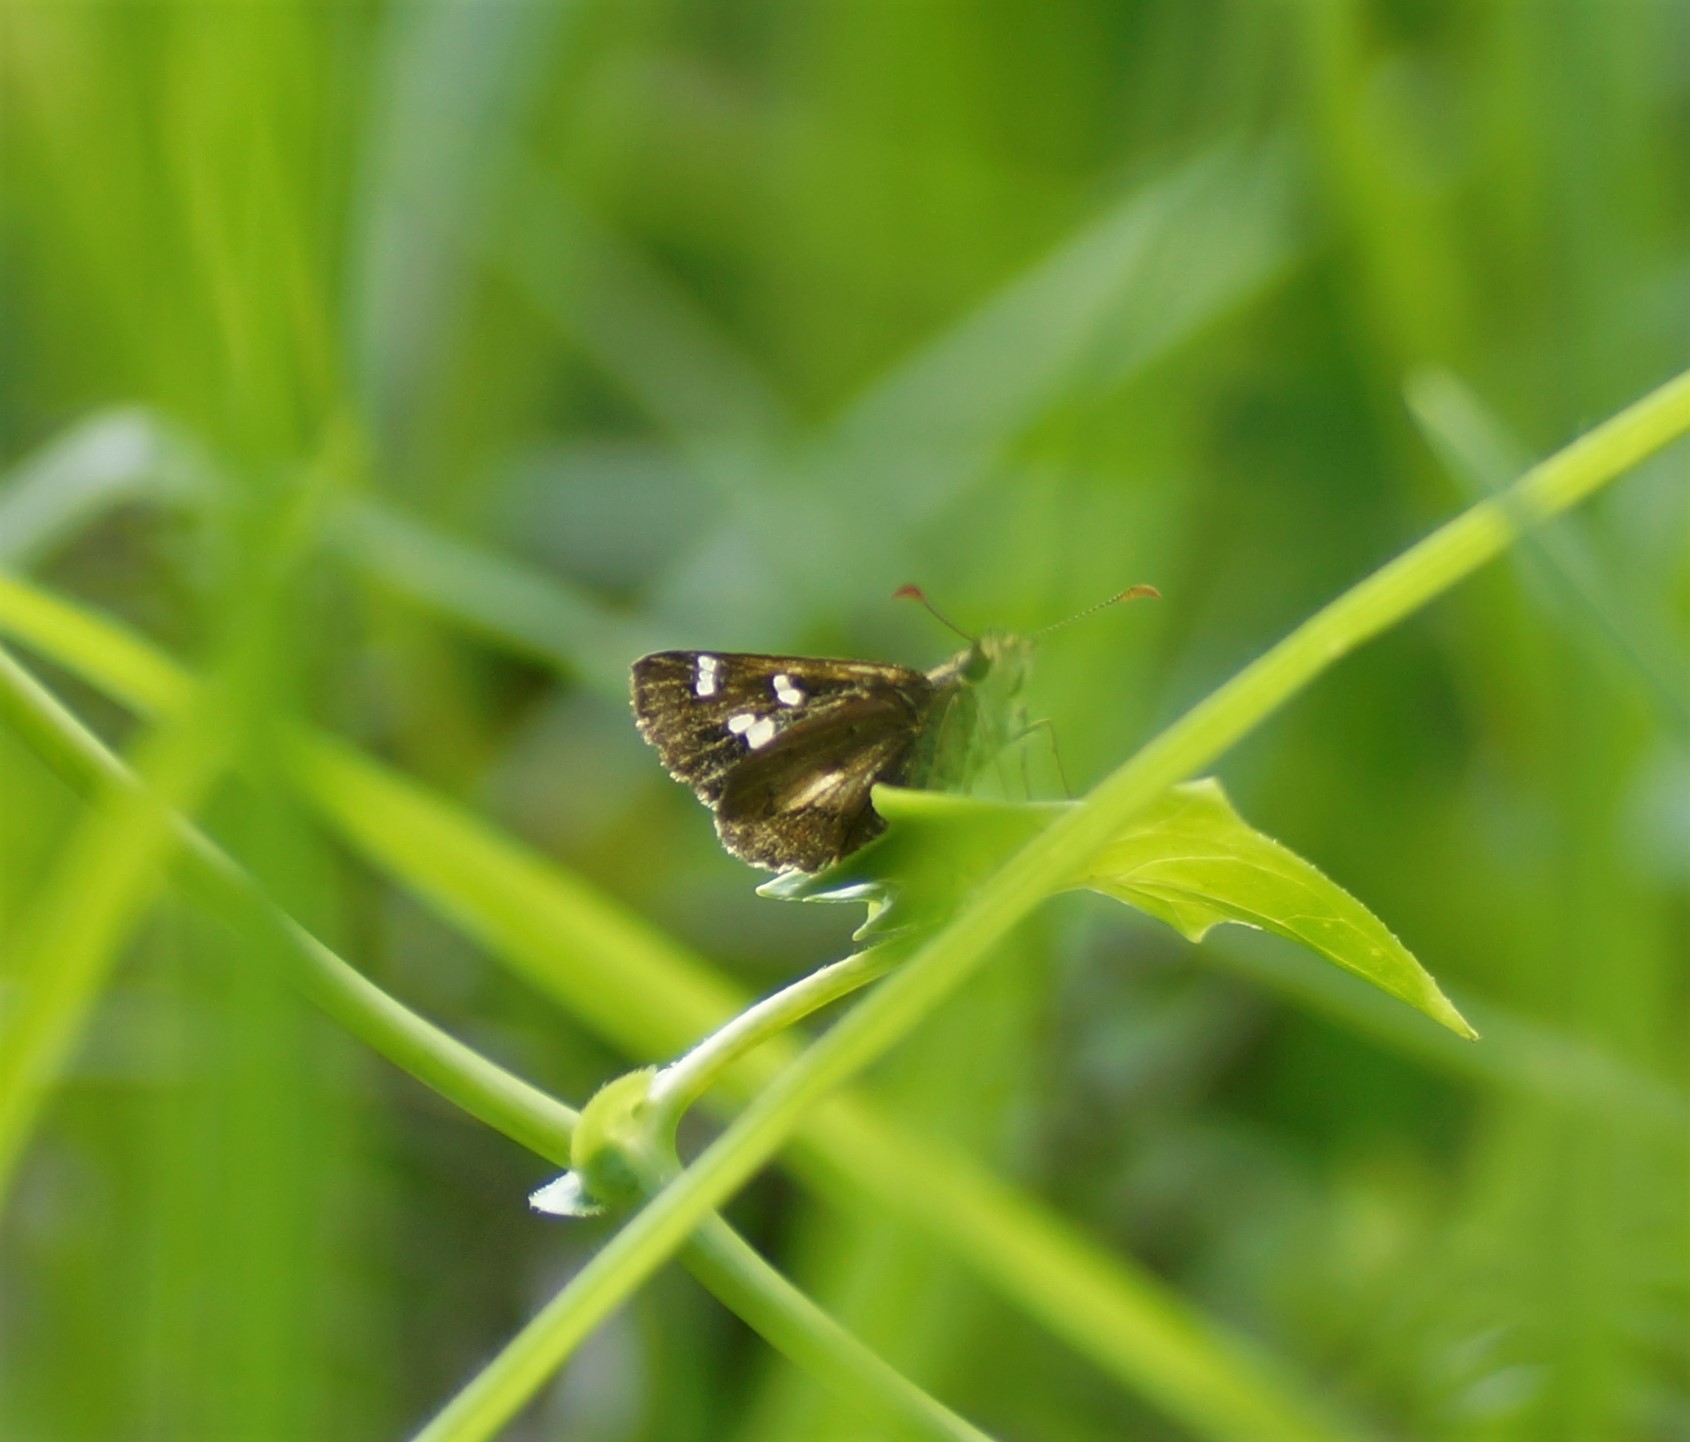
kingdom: Animalia
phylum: Arthropoda
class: Insecta
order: Lepidoptera
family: Hesperiidae
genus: Dispar
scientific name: Dispar compacta
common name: Barred skipper
